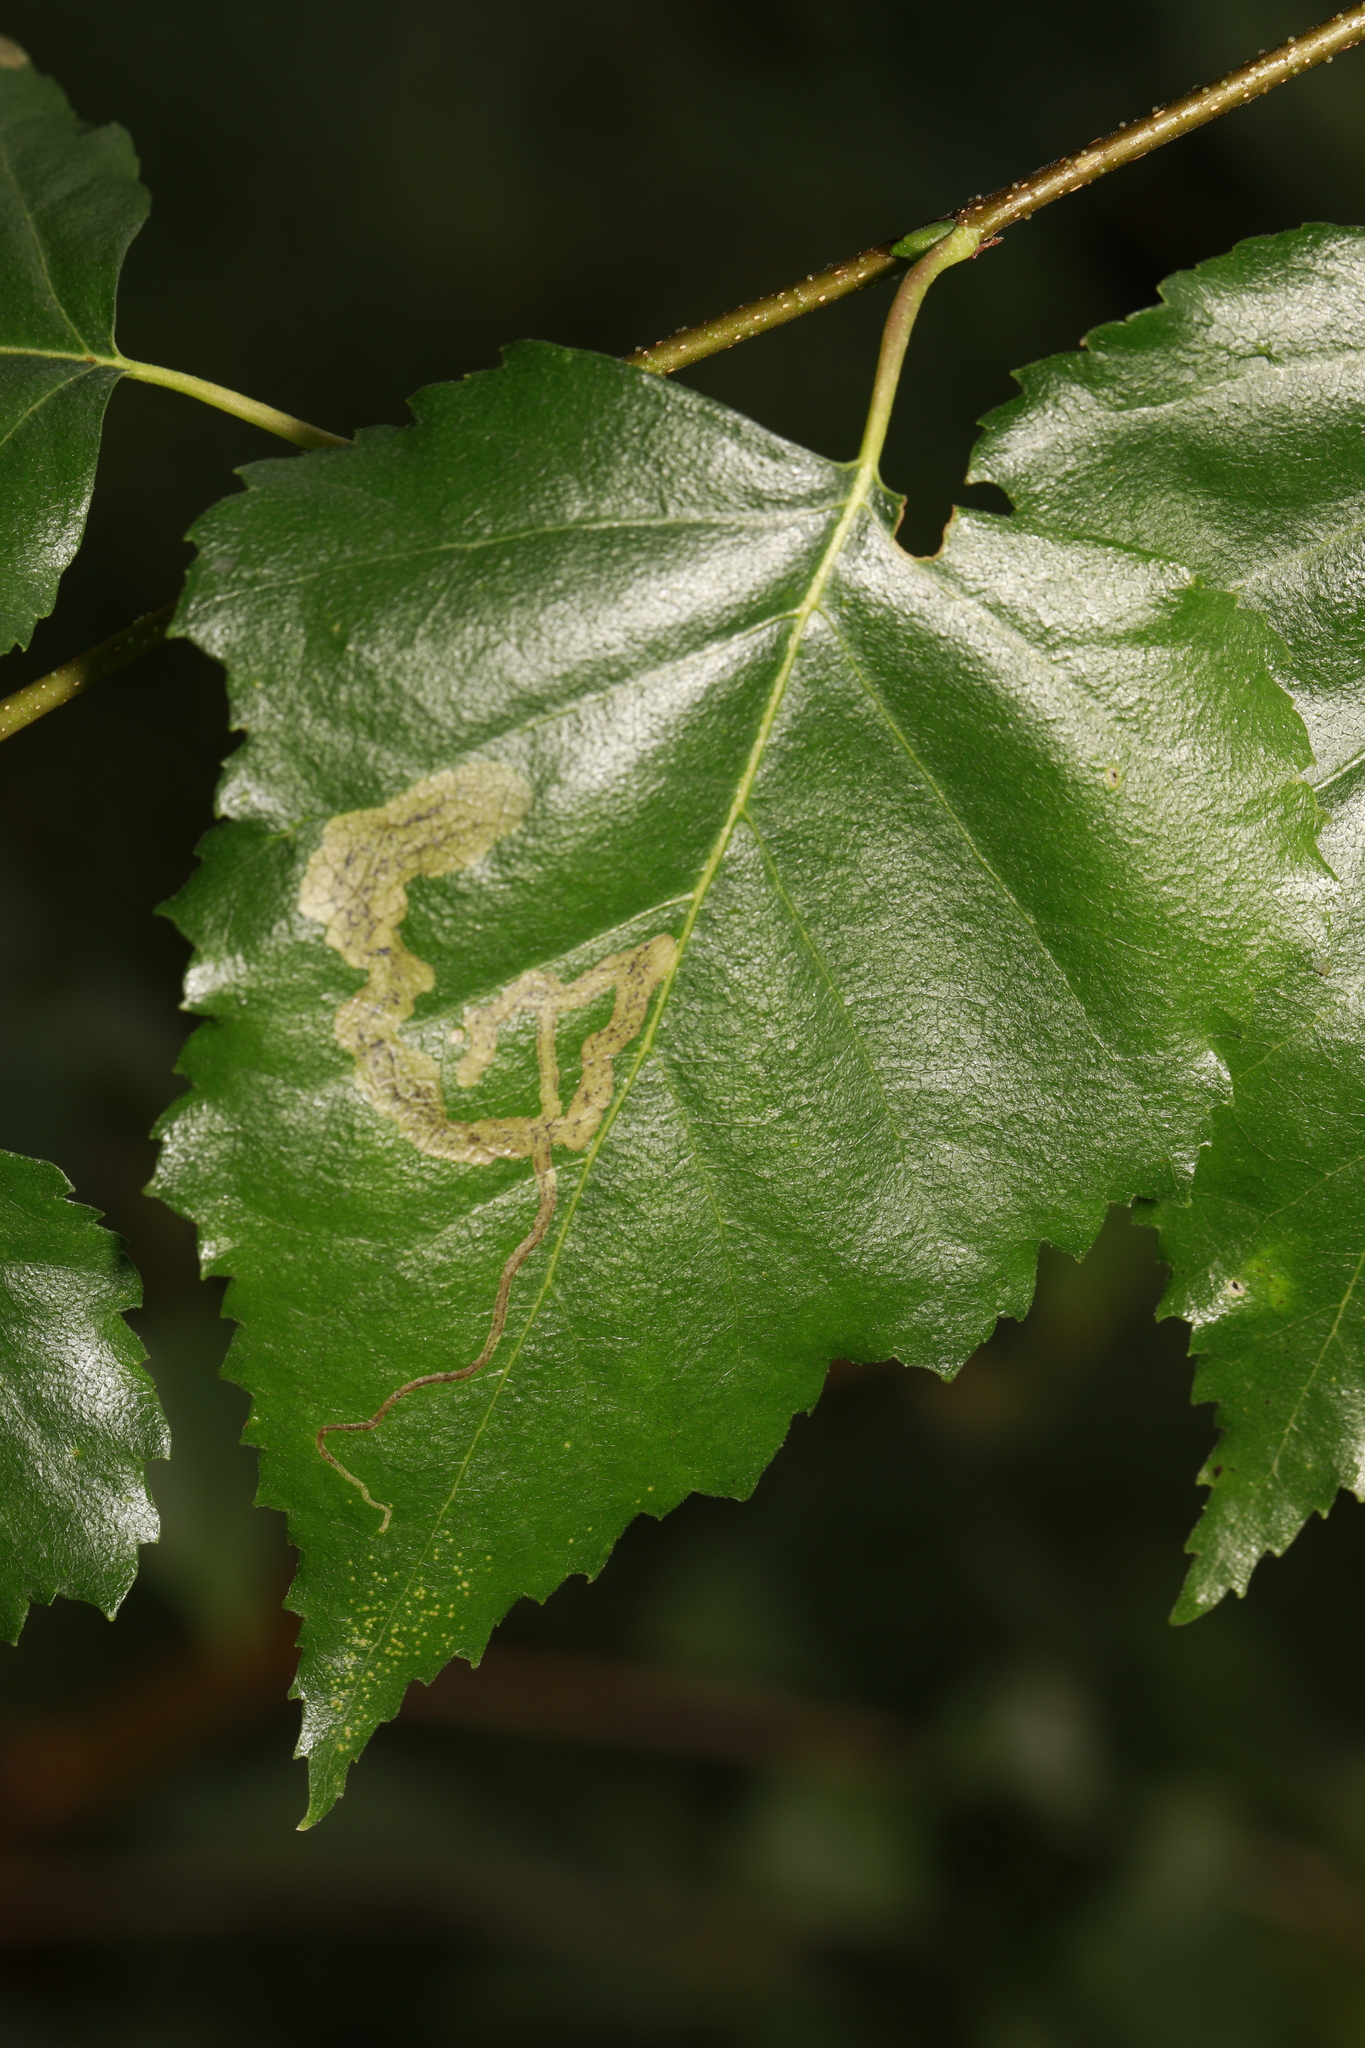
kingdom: Animalia
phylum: Arthropoda
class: Insecta
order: Diptera
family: Agromyzidae
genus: Agromyza
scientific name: Agromyza alnibetulae
